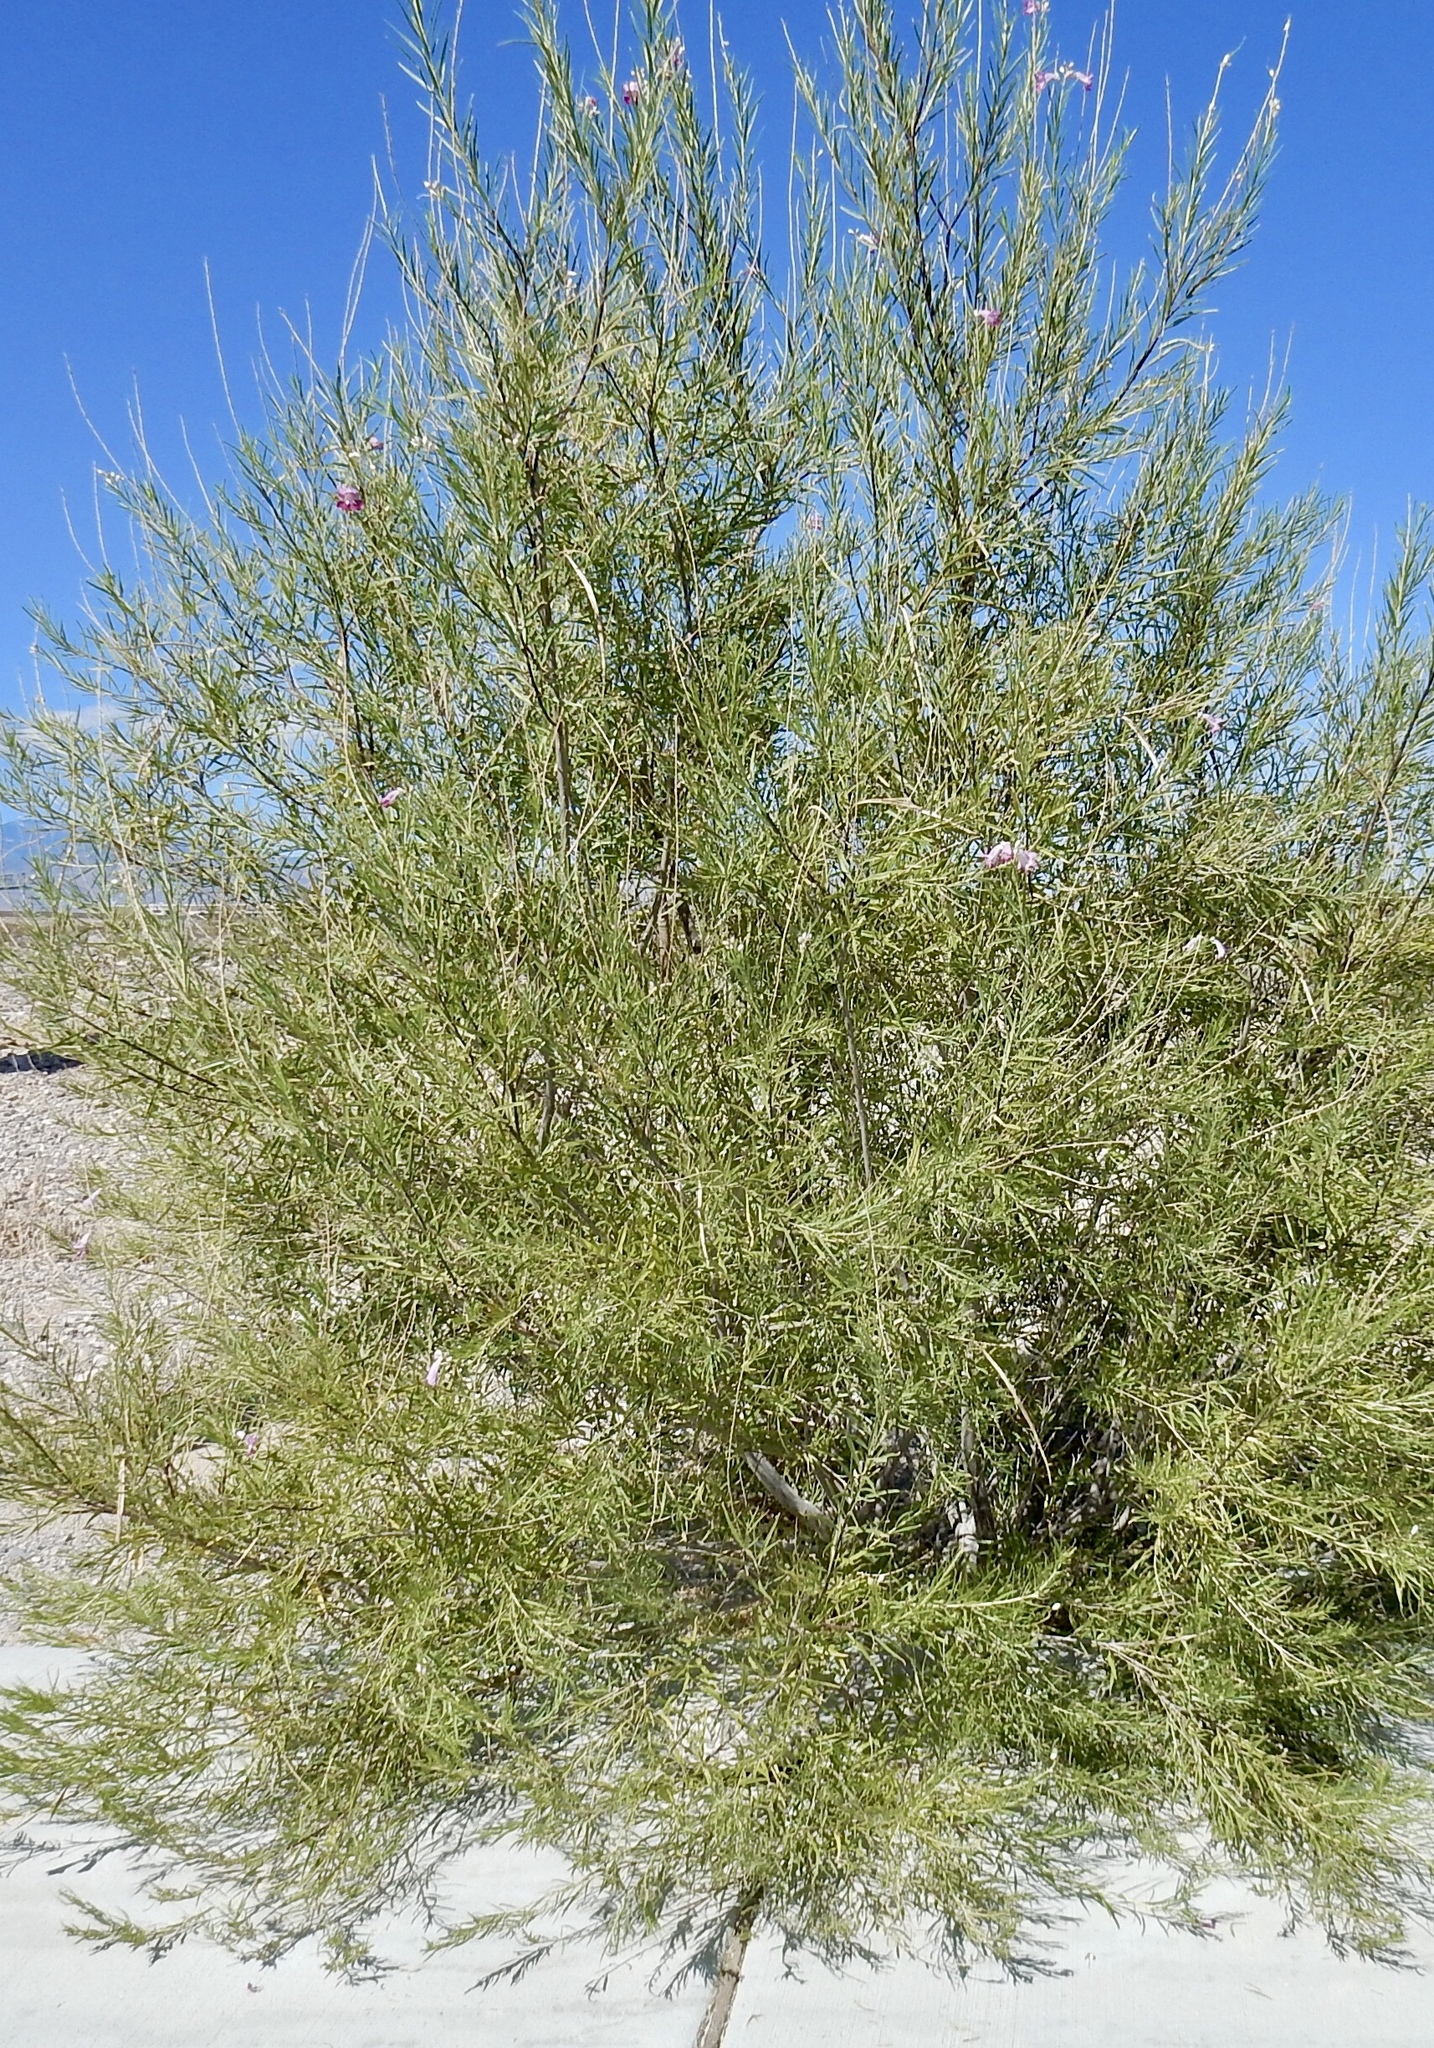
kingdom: Plantae
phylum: Tracheophyta
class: Magnoliopsida
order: Lamiales
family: Bignoniaceae
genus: Chilopsis
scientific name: Chilopsis linearis
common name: Desert-willow
